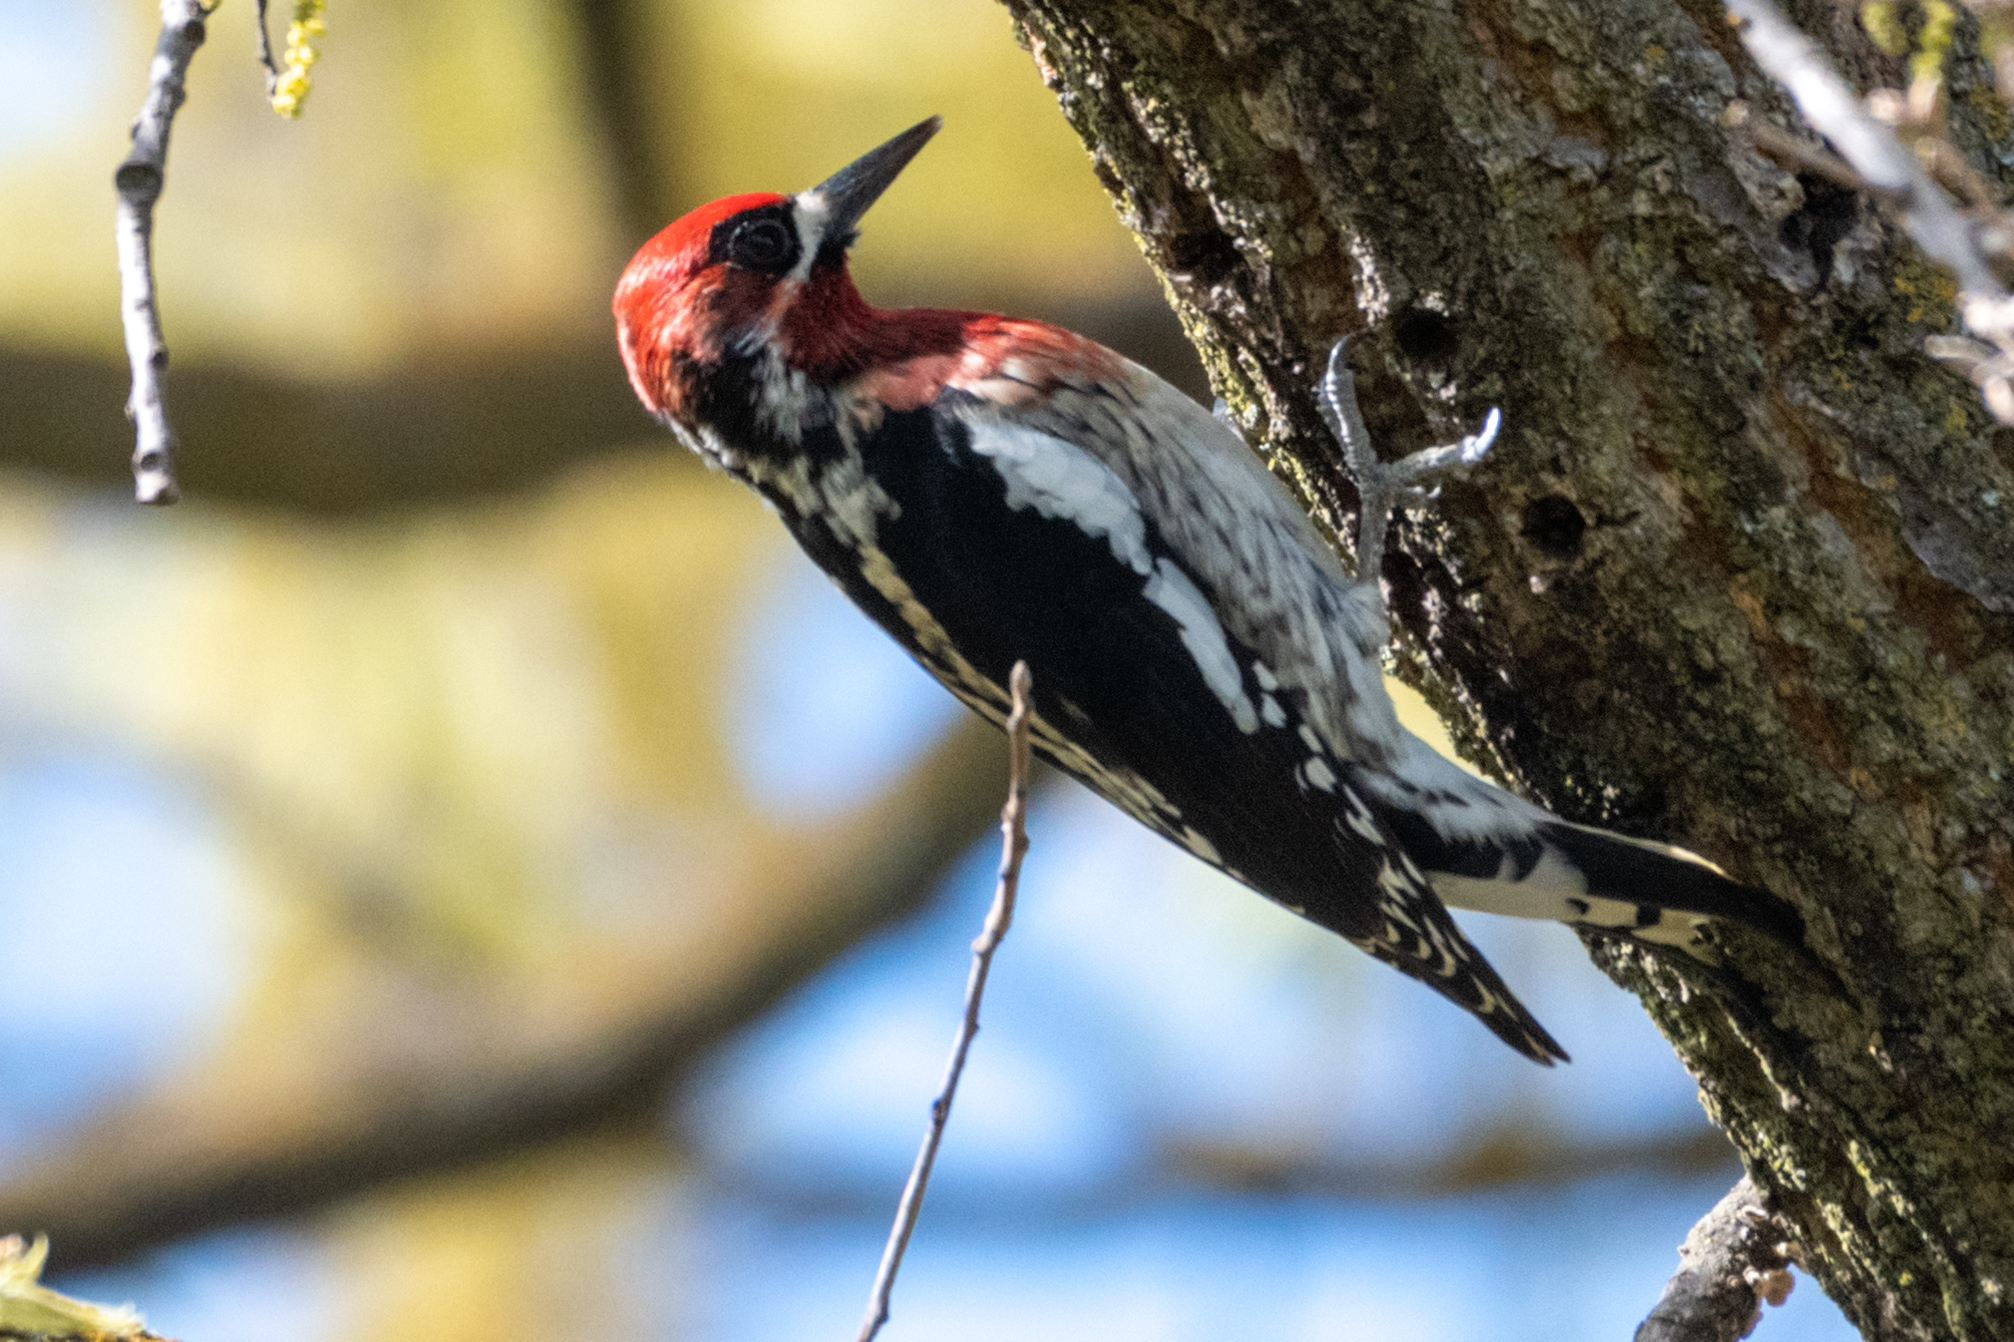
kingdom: Animalia
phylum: Chordata
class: Aves
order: Piciformes
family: Picidae
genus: Sphyrapicus
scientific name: Sphyrapicus ruber
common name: Red-breasted sapsucker
